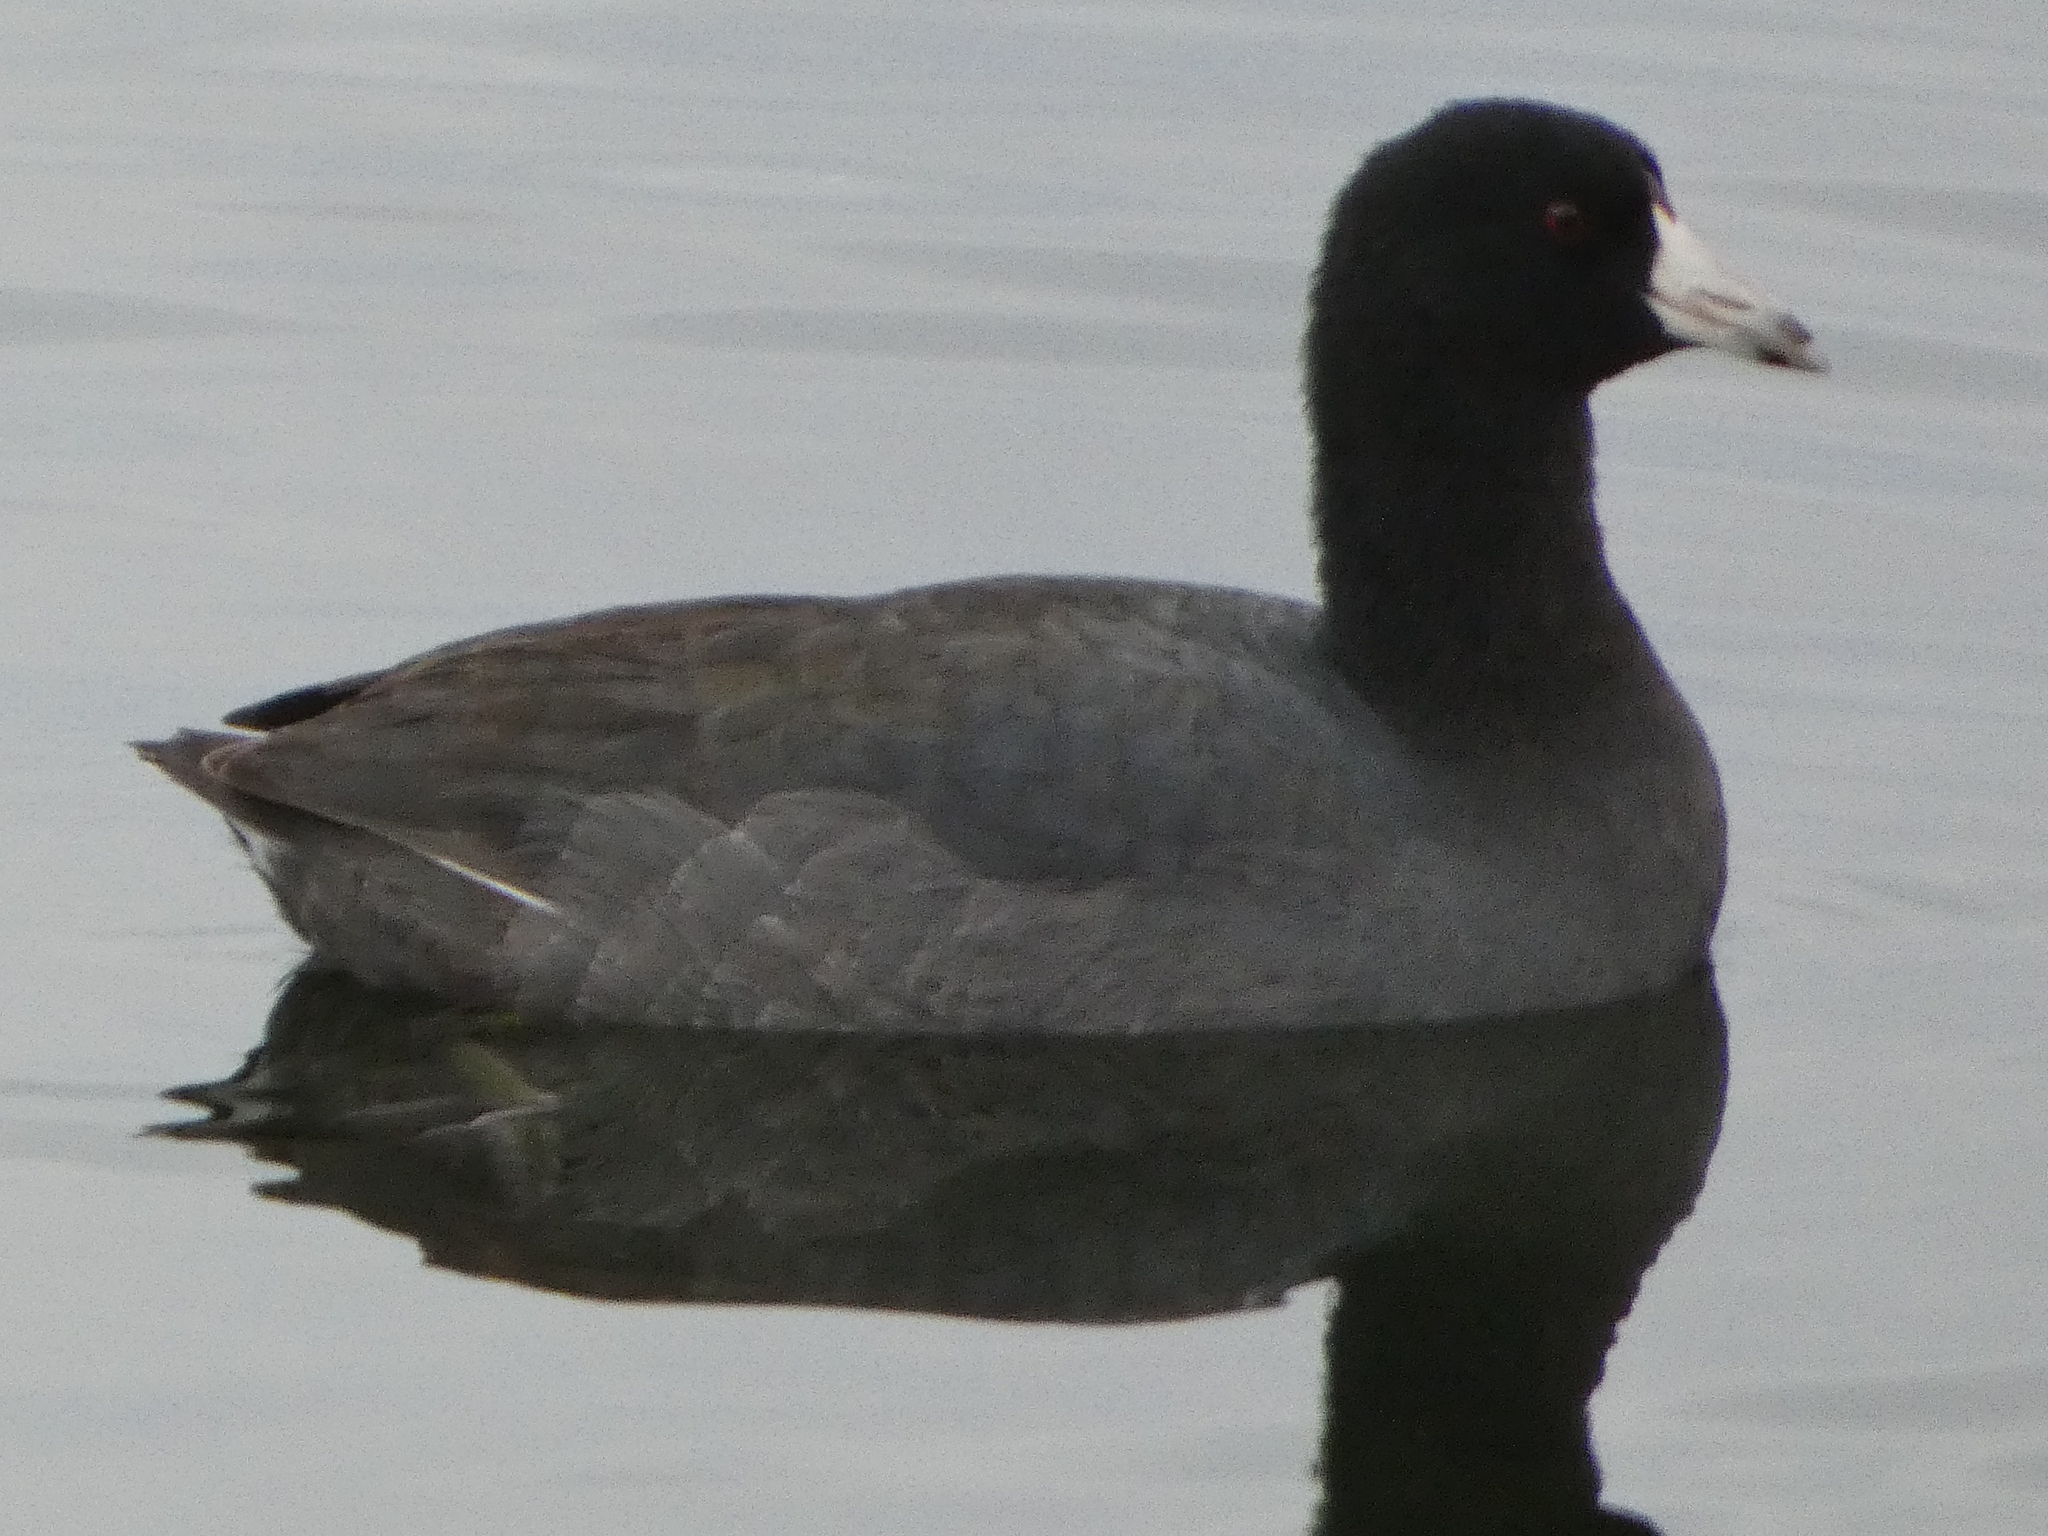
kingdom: Animalia
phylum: Chordata
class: Aves
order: Gruiformes
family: Rallidae
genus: Fulica
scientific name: Fulica americana
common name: American coot
